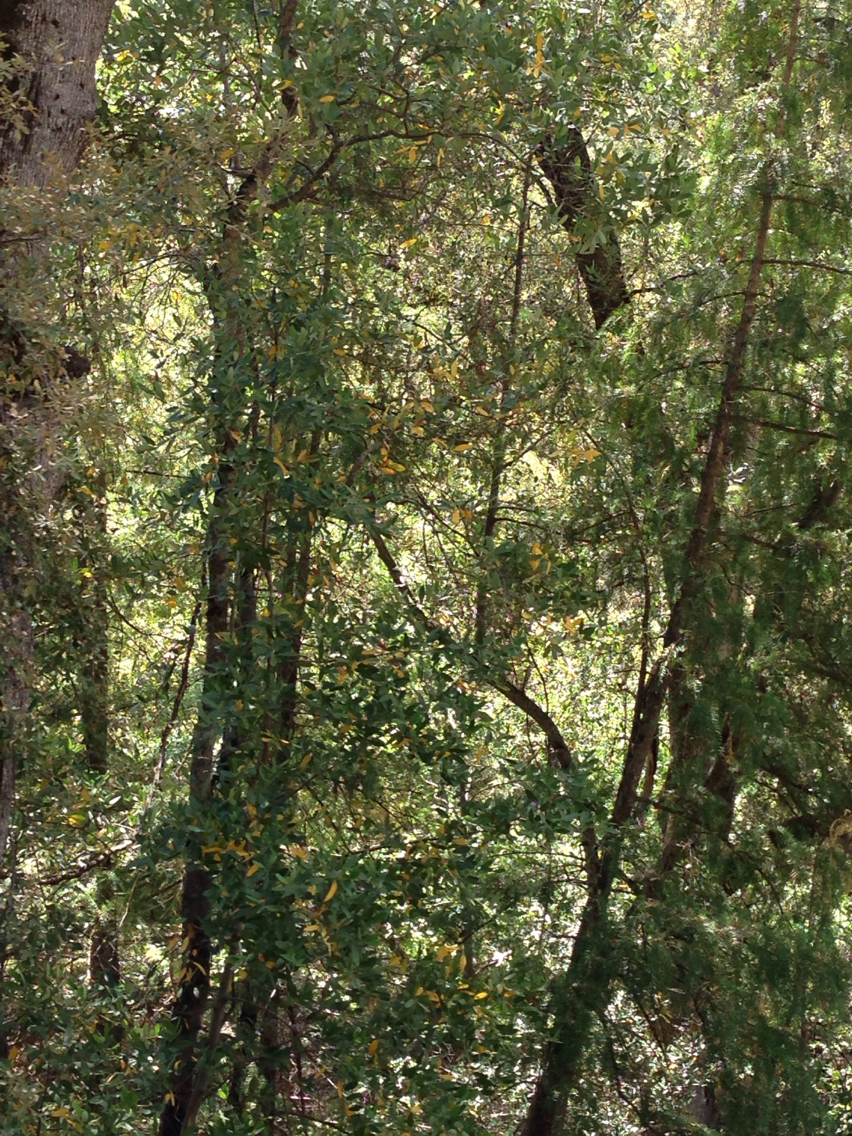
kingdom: Plantae
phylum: Tracheophyta
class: Magnoliopsida
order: Laurales
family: Lauraceae
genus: Umbellularia
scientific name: Umbellularia californica
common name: California bay
